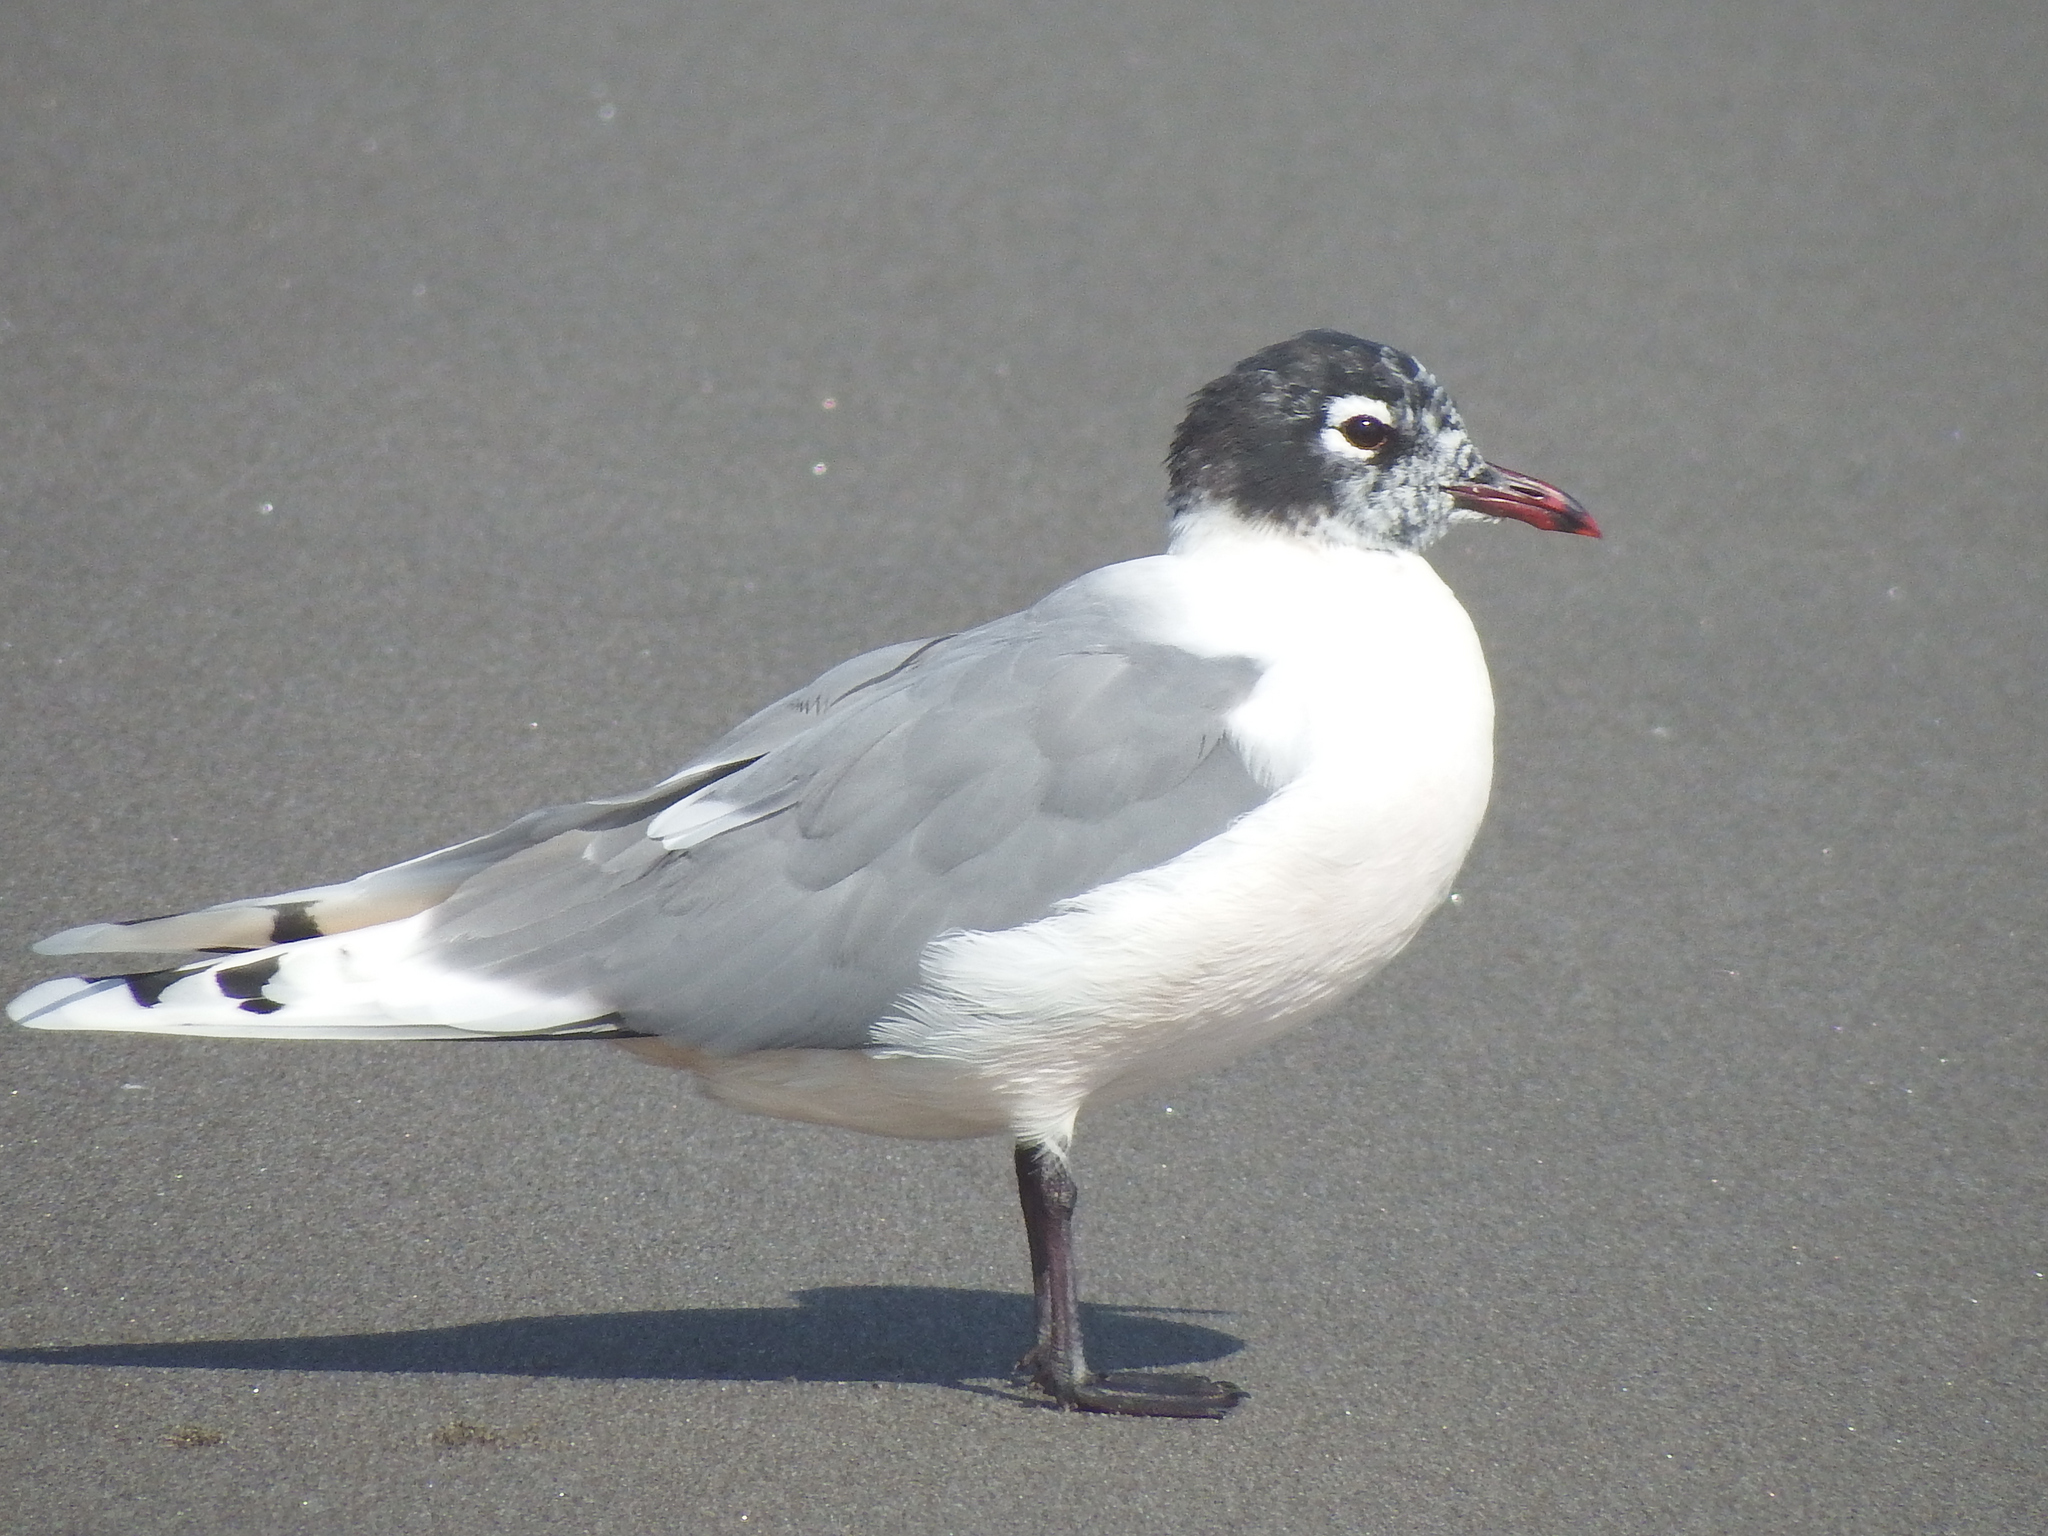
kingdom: Animalia
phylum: Chordata
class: Aves
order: Charadriiformes
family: Laridae
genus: Leucophaeus
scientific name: Leucophaeus pipixcan
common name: Franklin's gull
